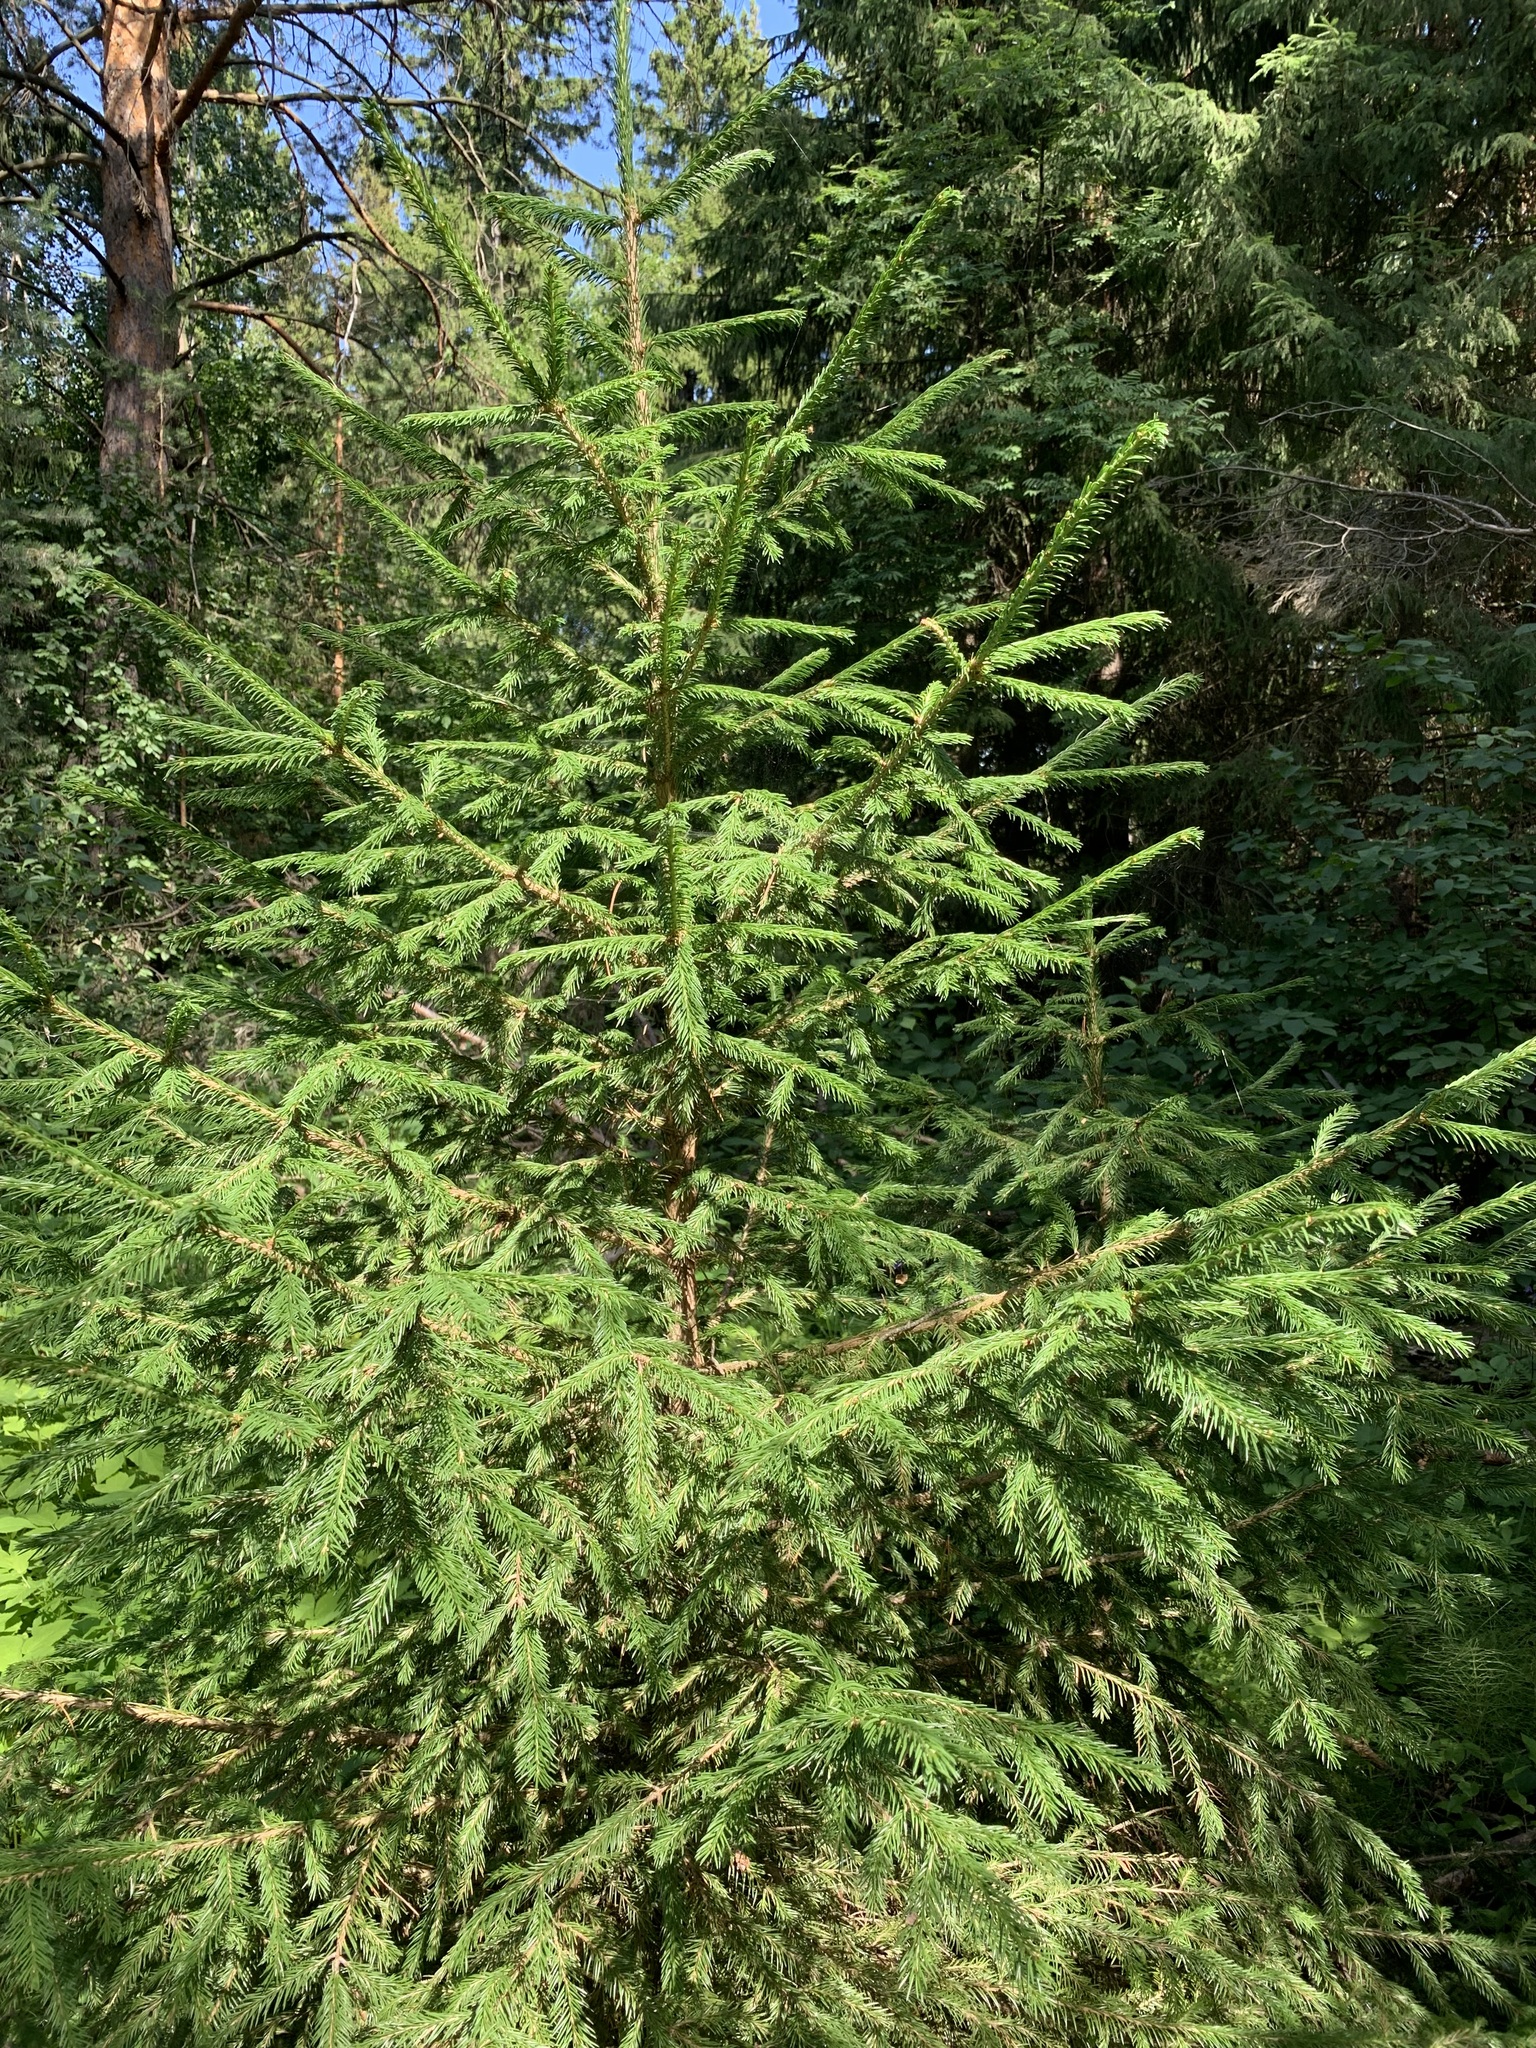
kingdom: Plantae
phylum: Tracheophyta
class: Pinopsida
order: Pinales
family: Pinaceae
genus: Picea
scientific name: Picea obovata
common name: Siberian spruce
